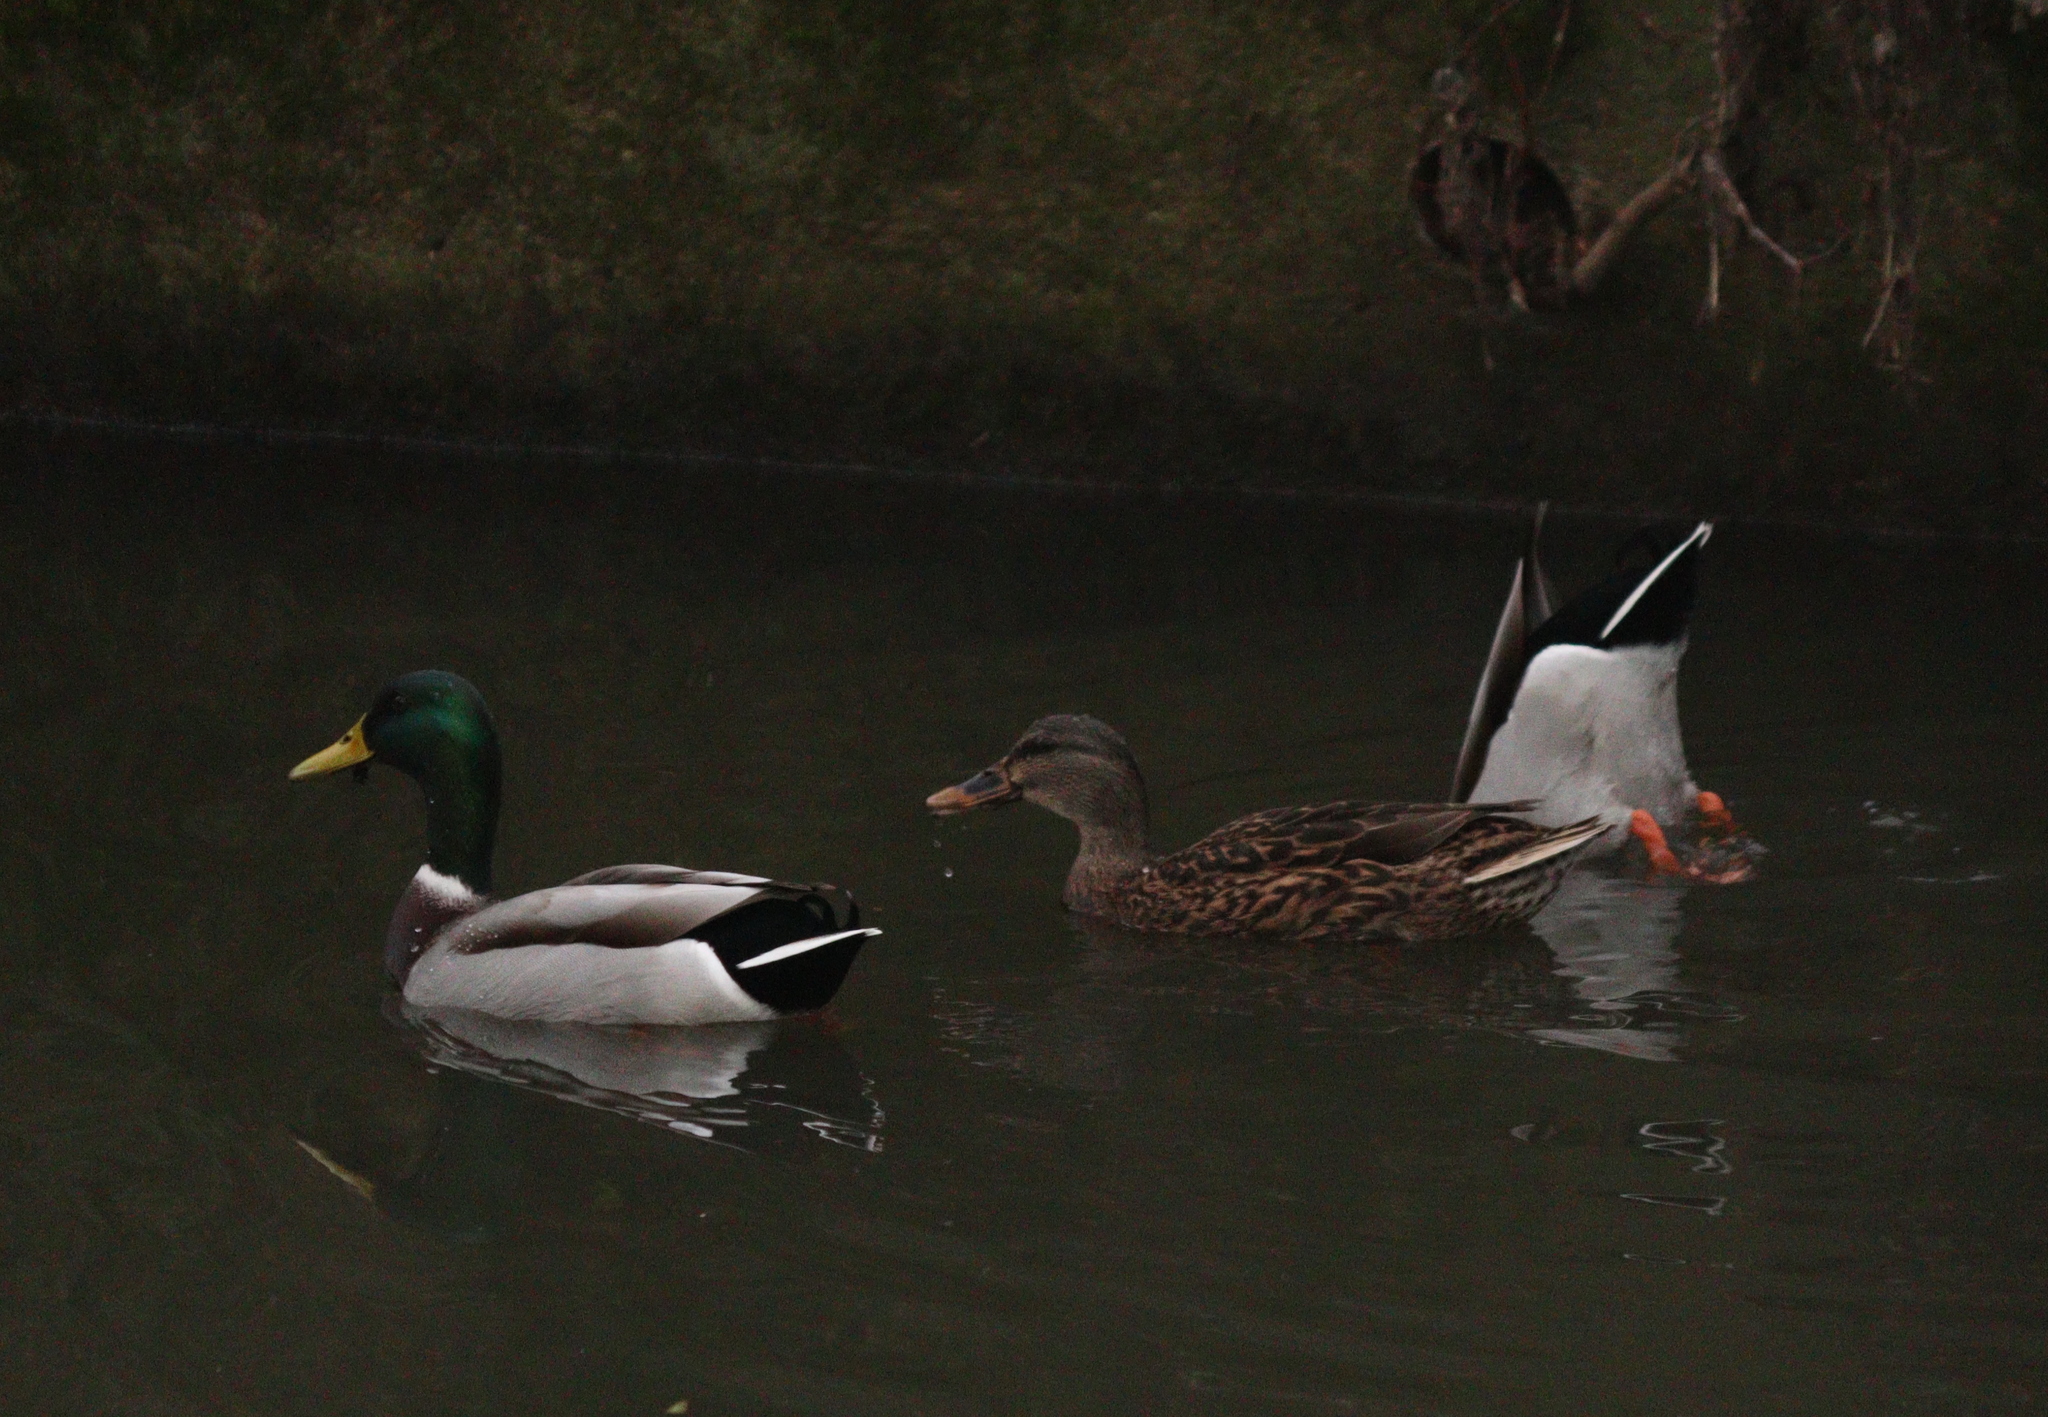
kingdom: Animalia
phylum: Chordata
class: Aves
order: Anseriformes
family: Anatidae
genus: Anas
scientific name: Anas platyrhynchos
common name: Mallard
